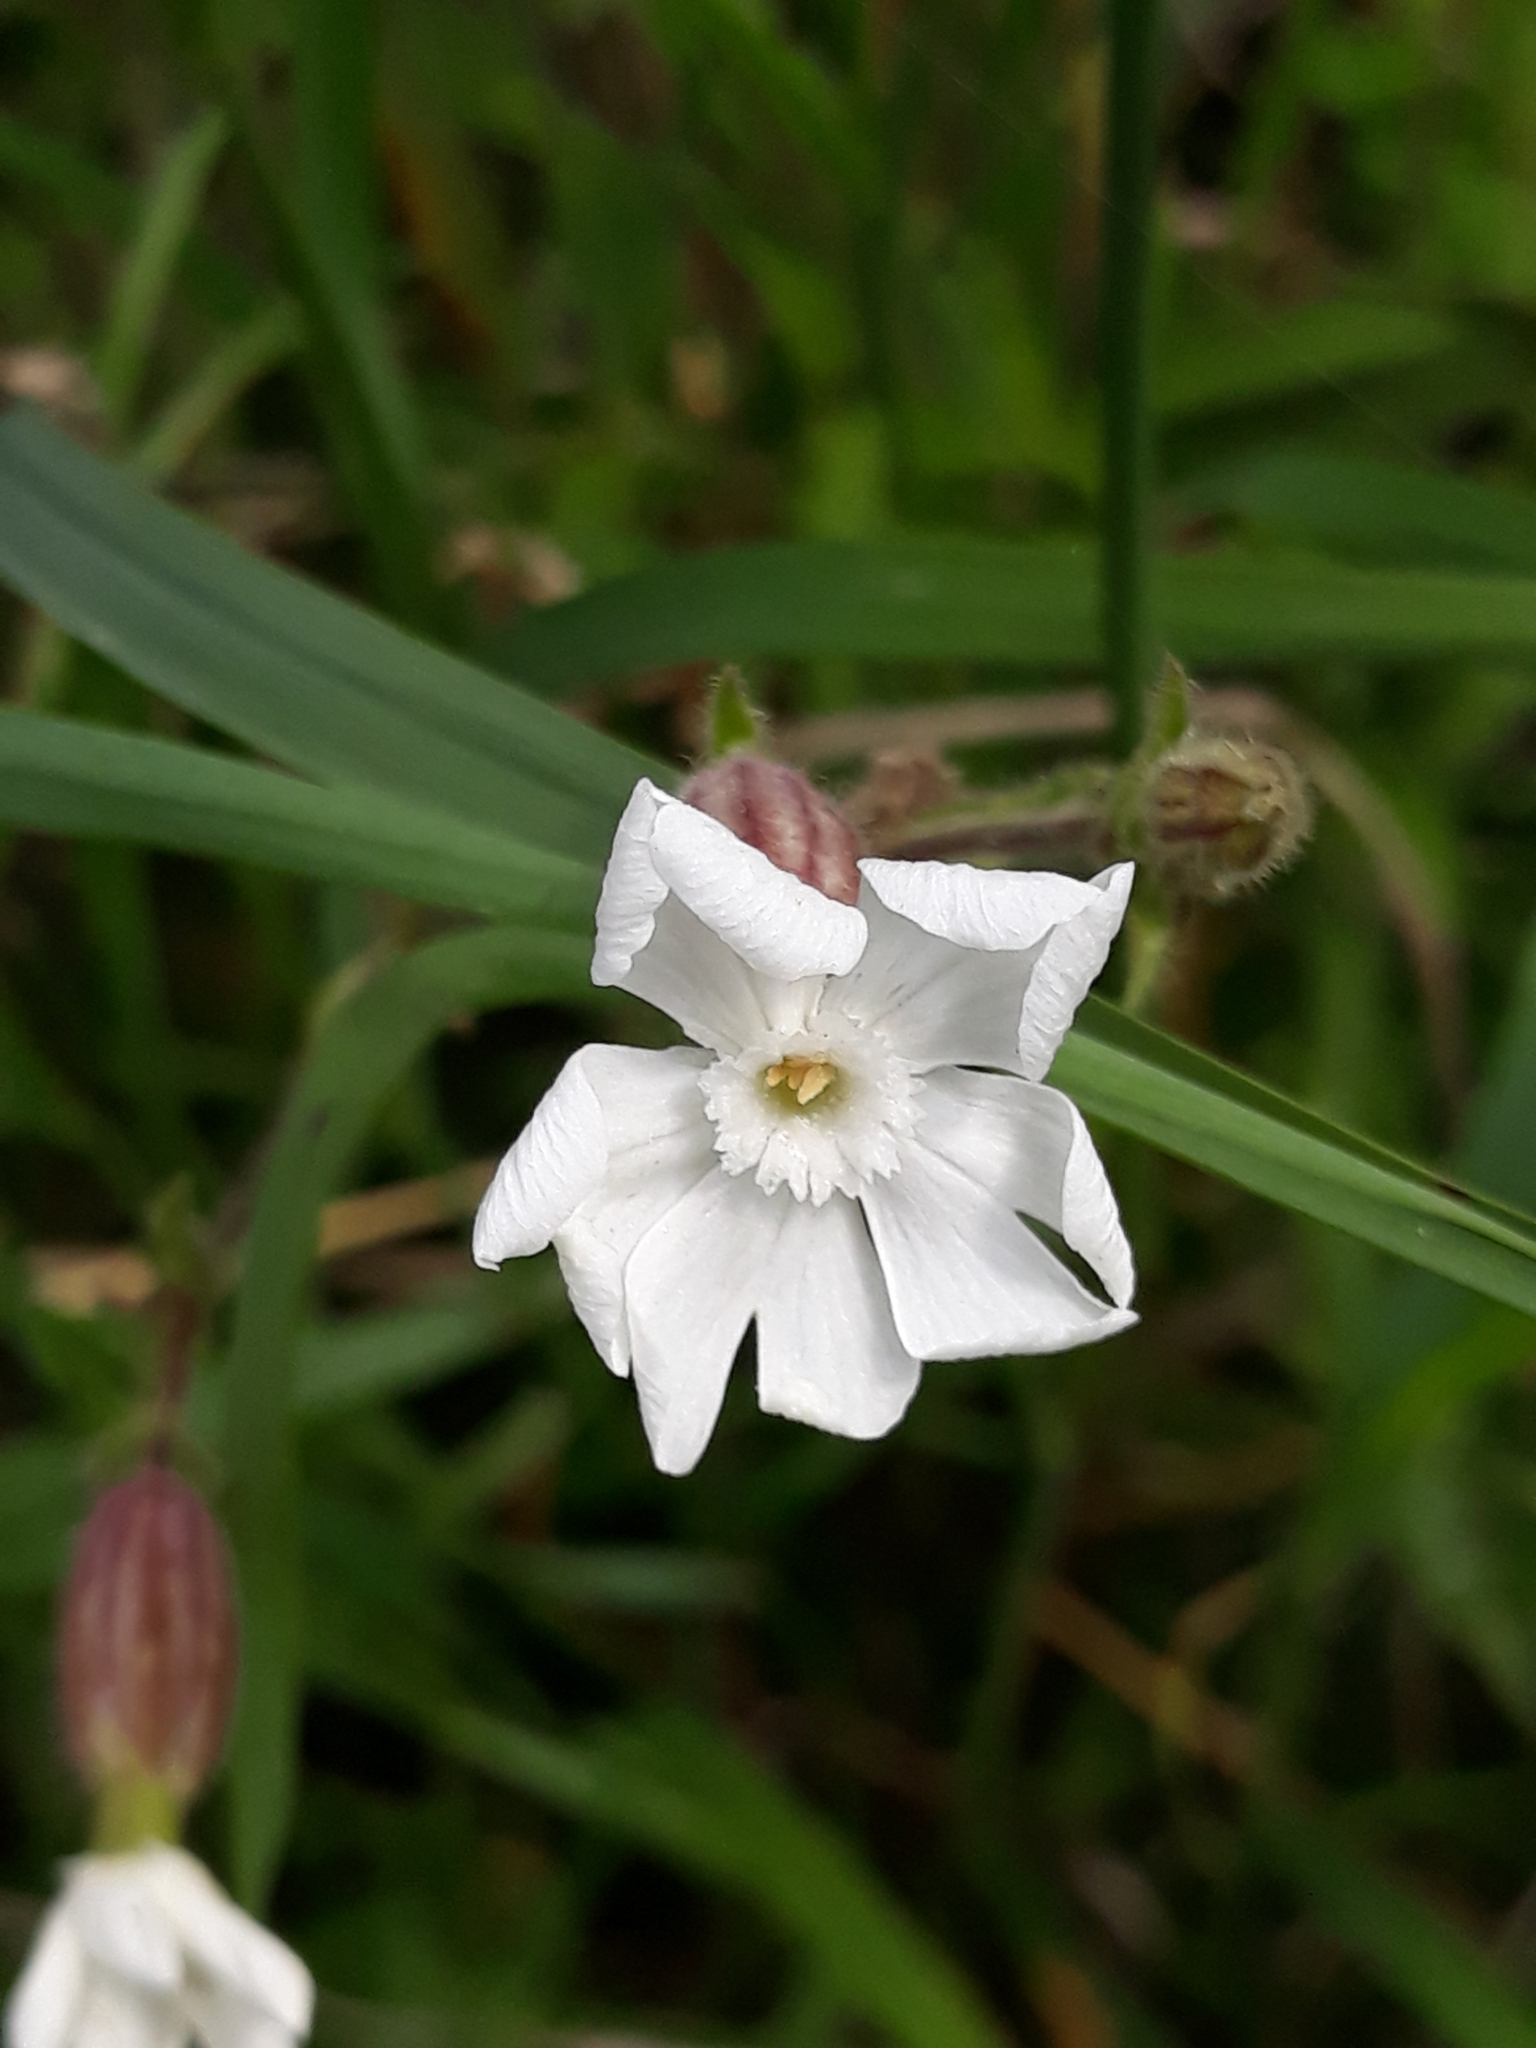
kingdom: Plantae
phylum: Tracheophyta
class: Magnoliopsida
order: Caryophyllales
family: Caryophyllaceae
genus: Silene
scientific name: Silene latifolia
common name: White campion
